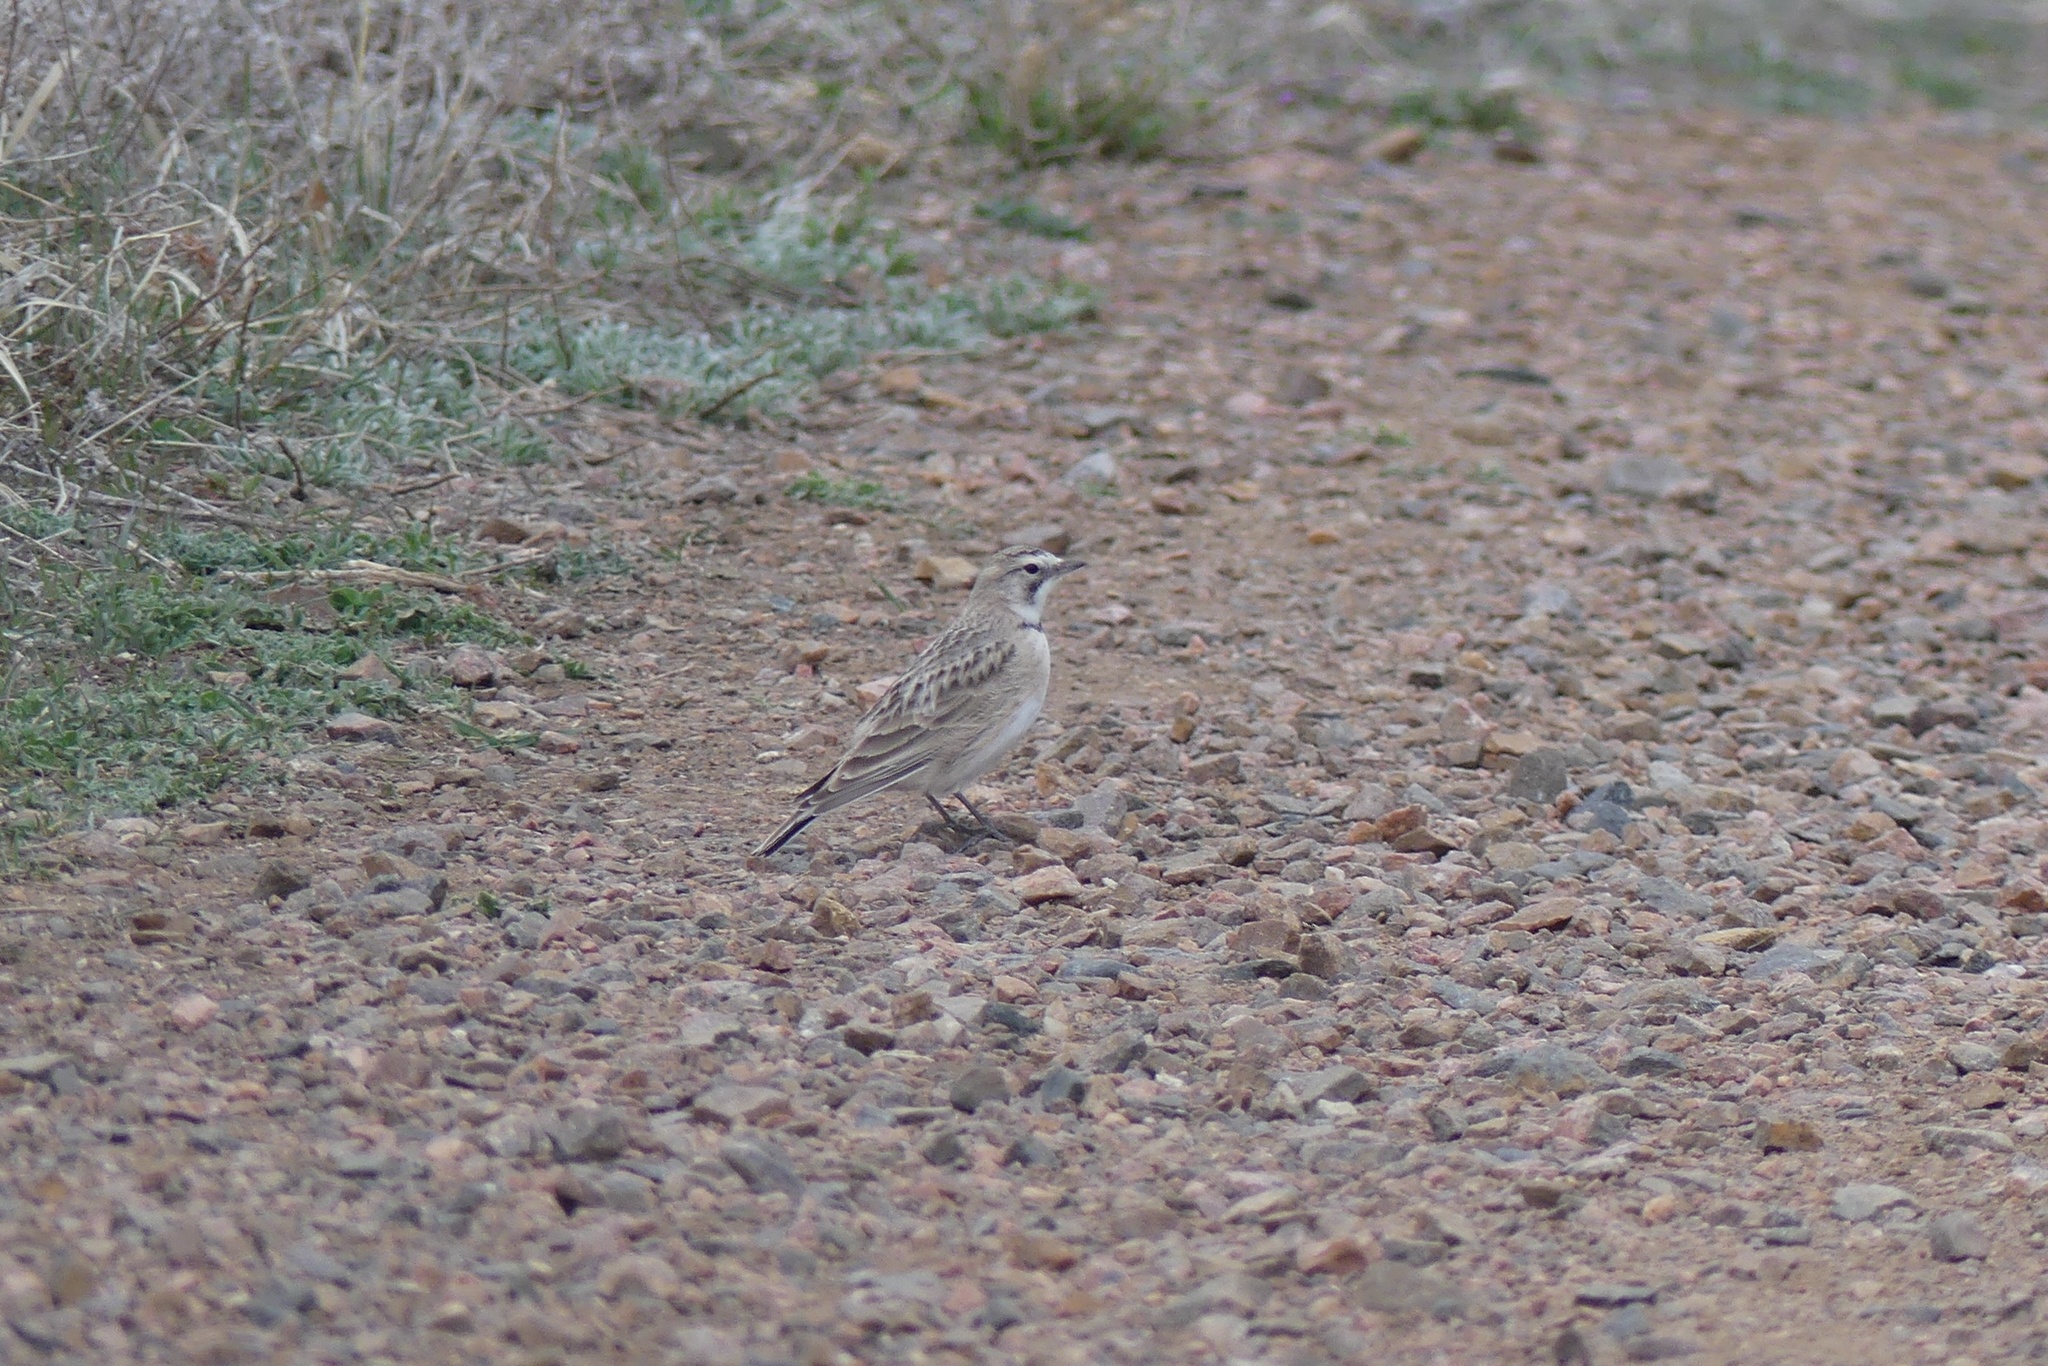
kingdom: Animalia
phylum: Chordata
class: Aves
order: Passeriformes
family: Alaudidae
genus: Eremophila
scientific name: Eremophila alpestris
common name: Horned lark
